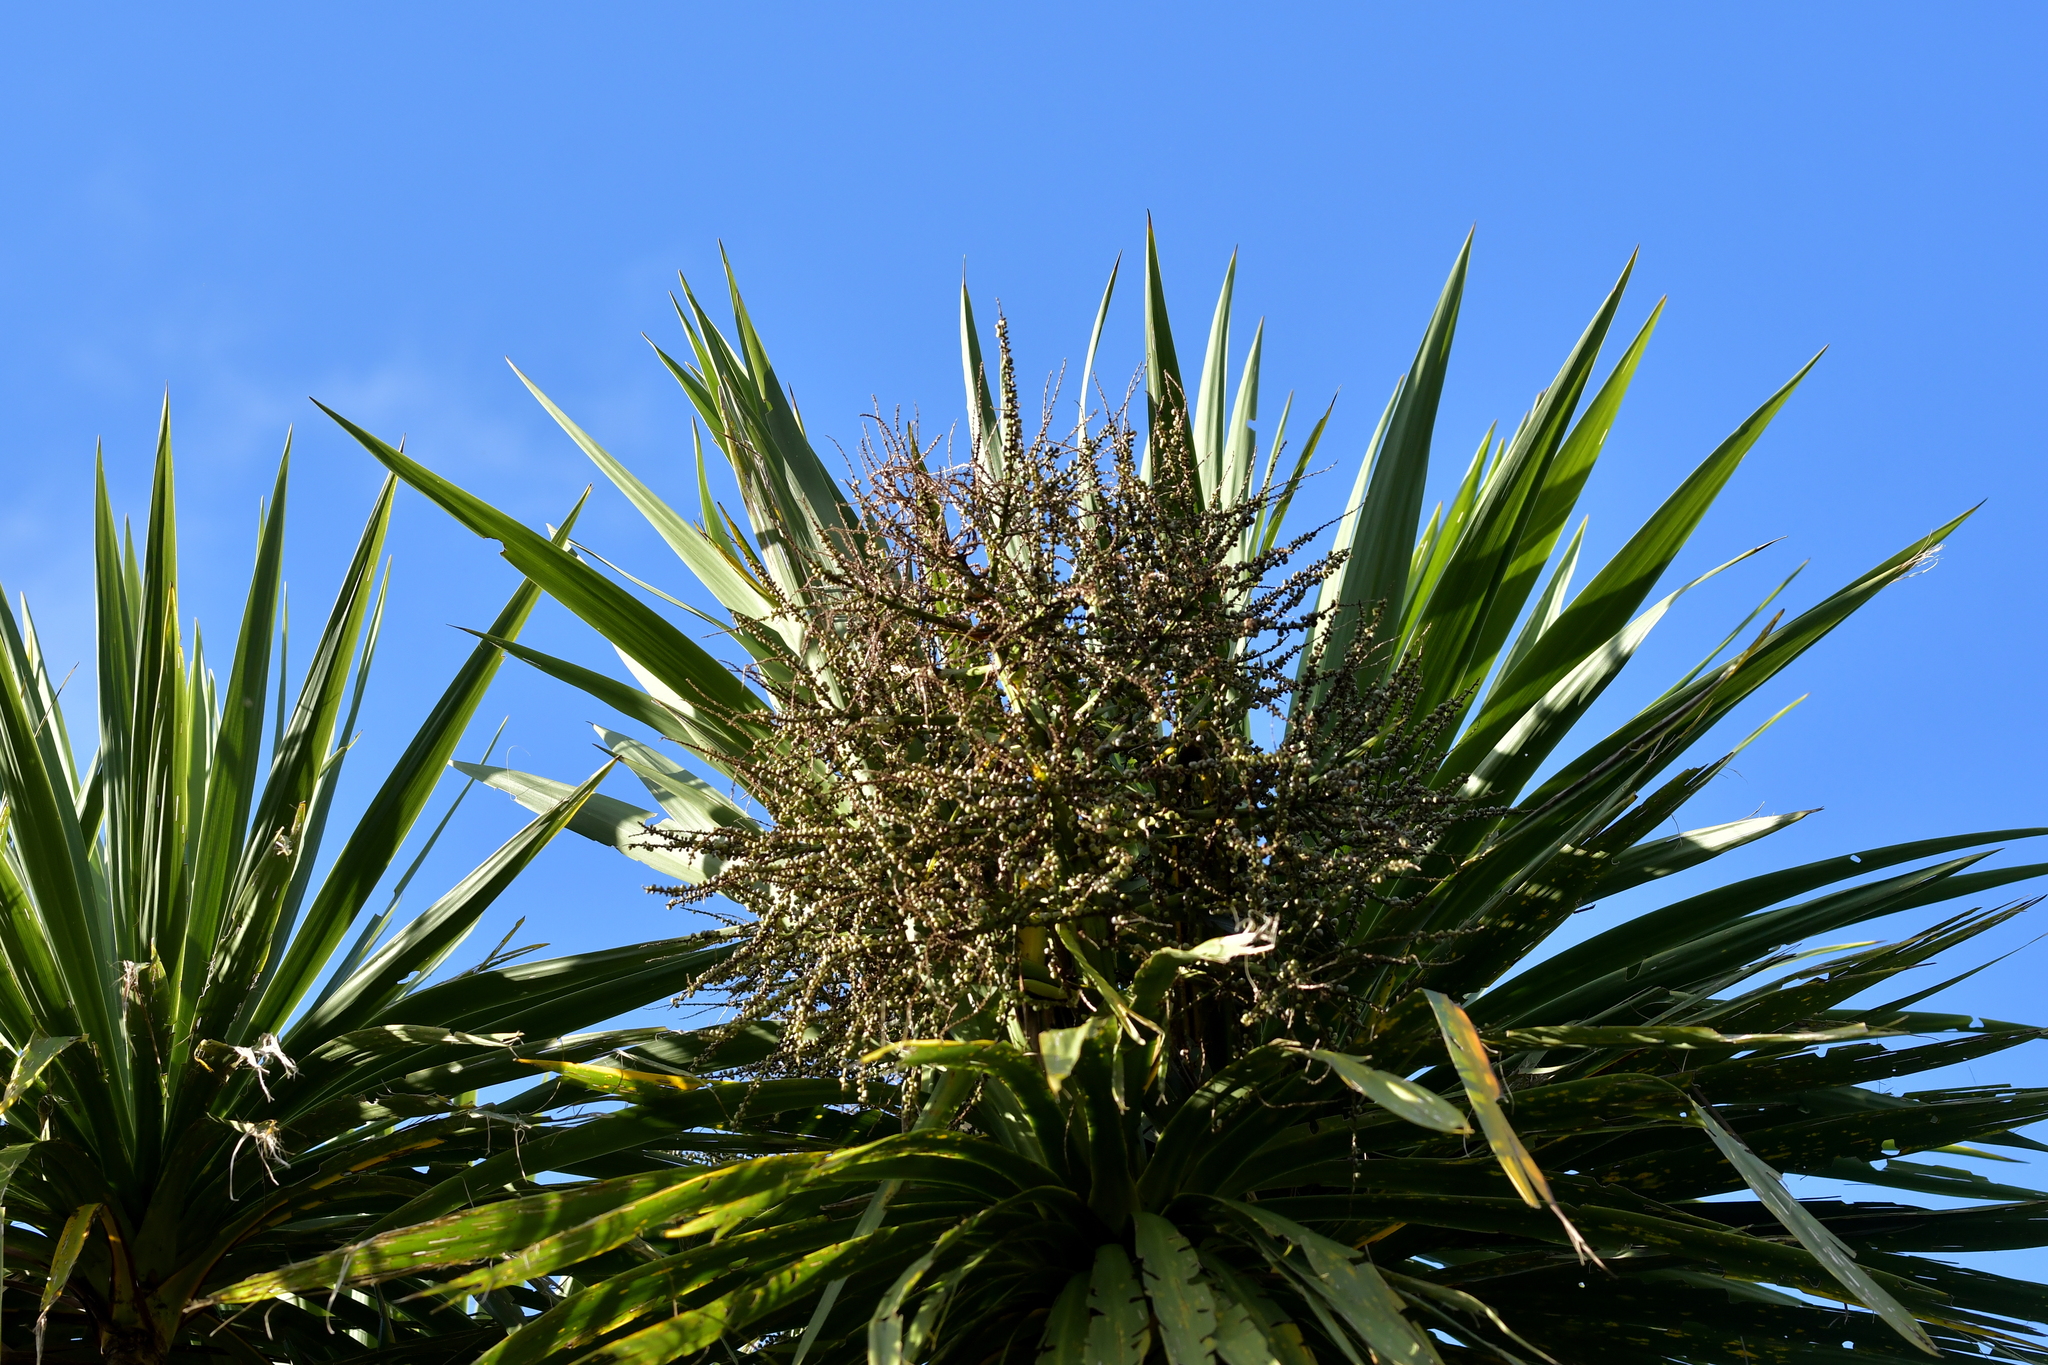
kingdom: Plantae
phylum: Tracheophyta
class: Liliopsida
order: Asparagales
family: Asparagaceae
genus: Cordyline
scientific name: Cordyline australis
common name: Cabbage-palm
